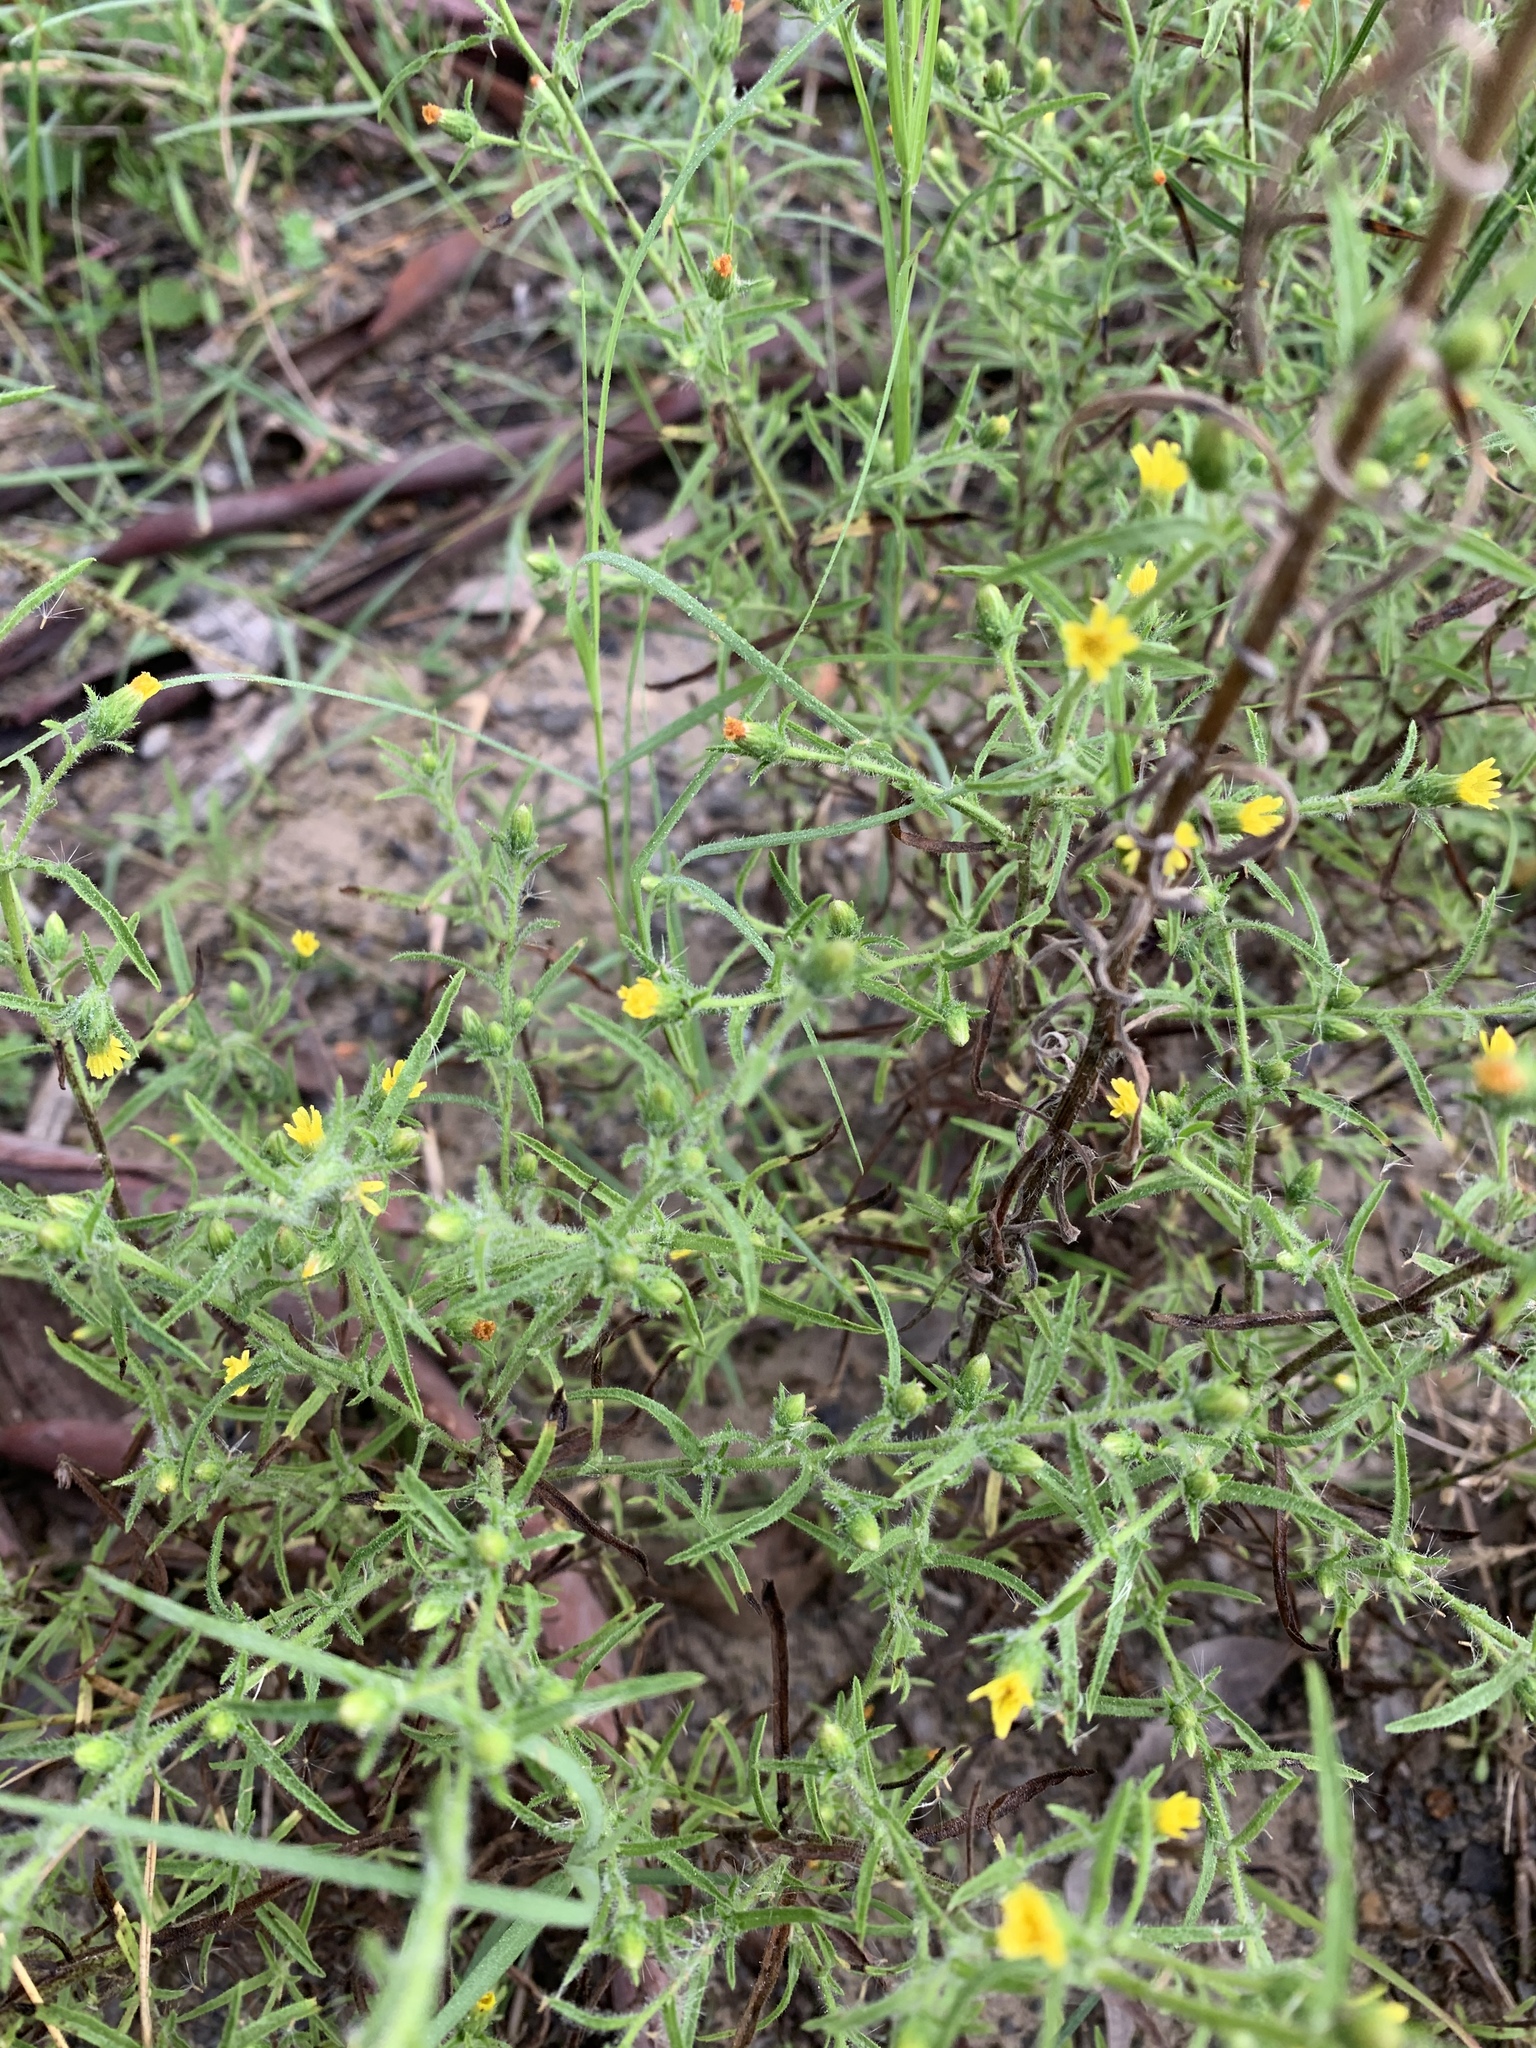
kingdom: Plantae
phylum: Tracheophyta
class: Magnoliopsida
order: Asterales
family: Asteraceae
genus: Dittrichia
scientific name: Dittrichia graveolens
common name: Stinking fleabane
